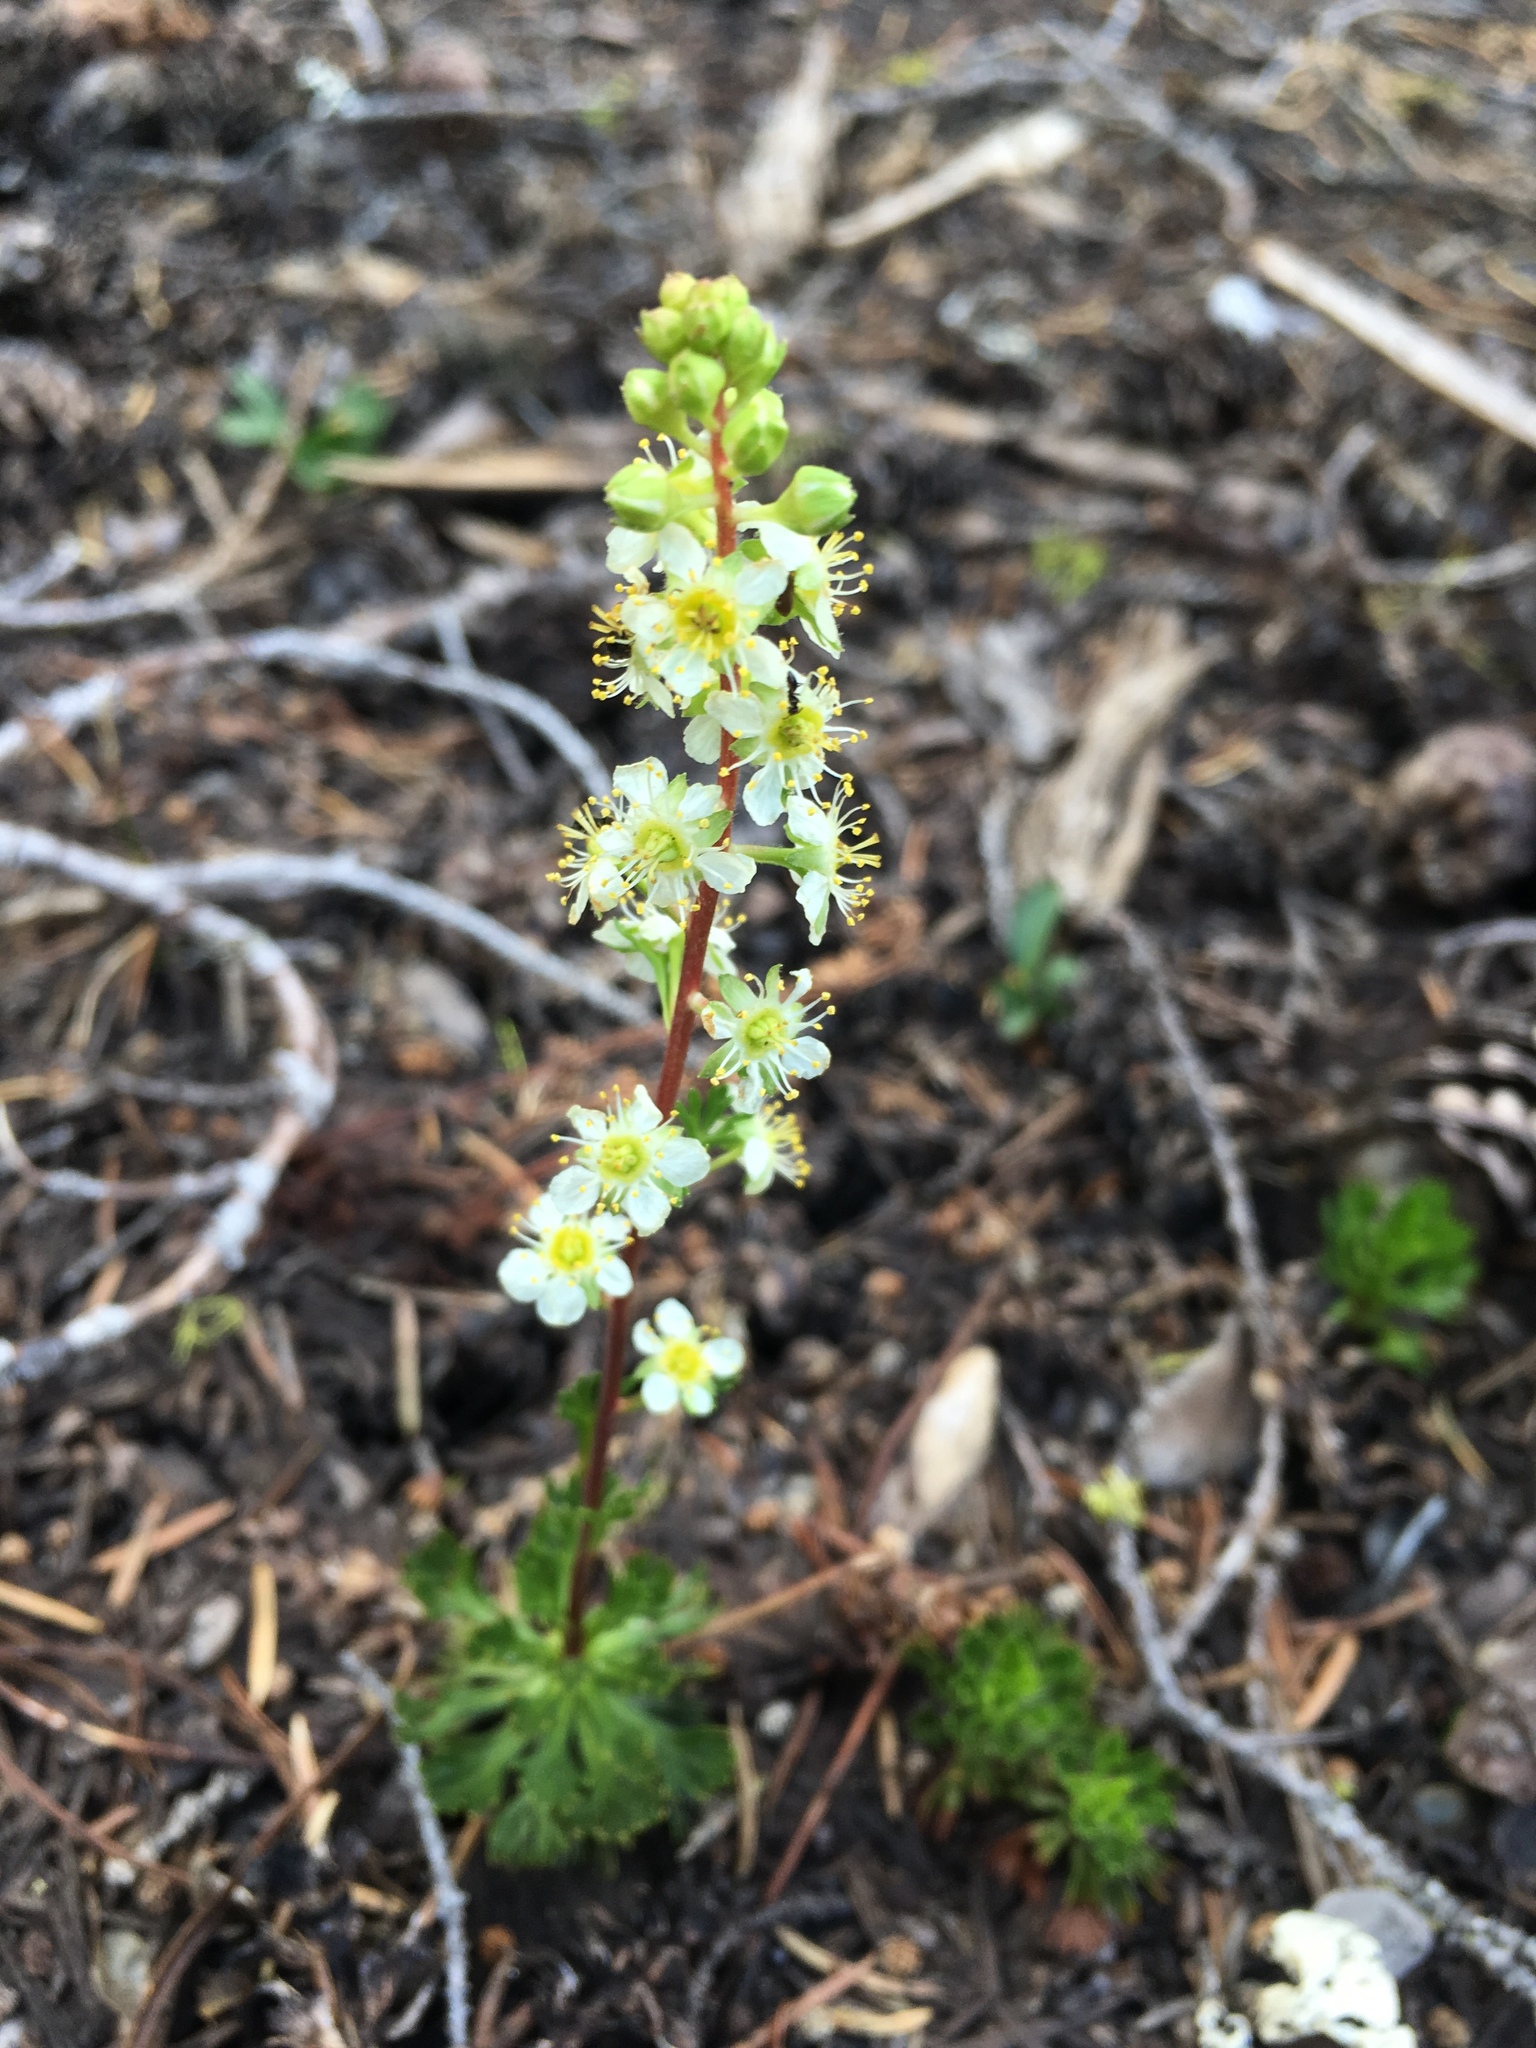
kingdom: Plantae
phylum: Tracheophyta
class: Magnoliopsida
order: Rosales
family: Rosaceae
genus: Luetkea
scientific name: Luetkea pectinata
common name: Partridgefoot
